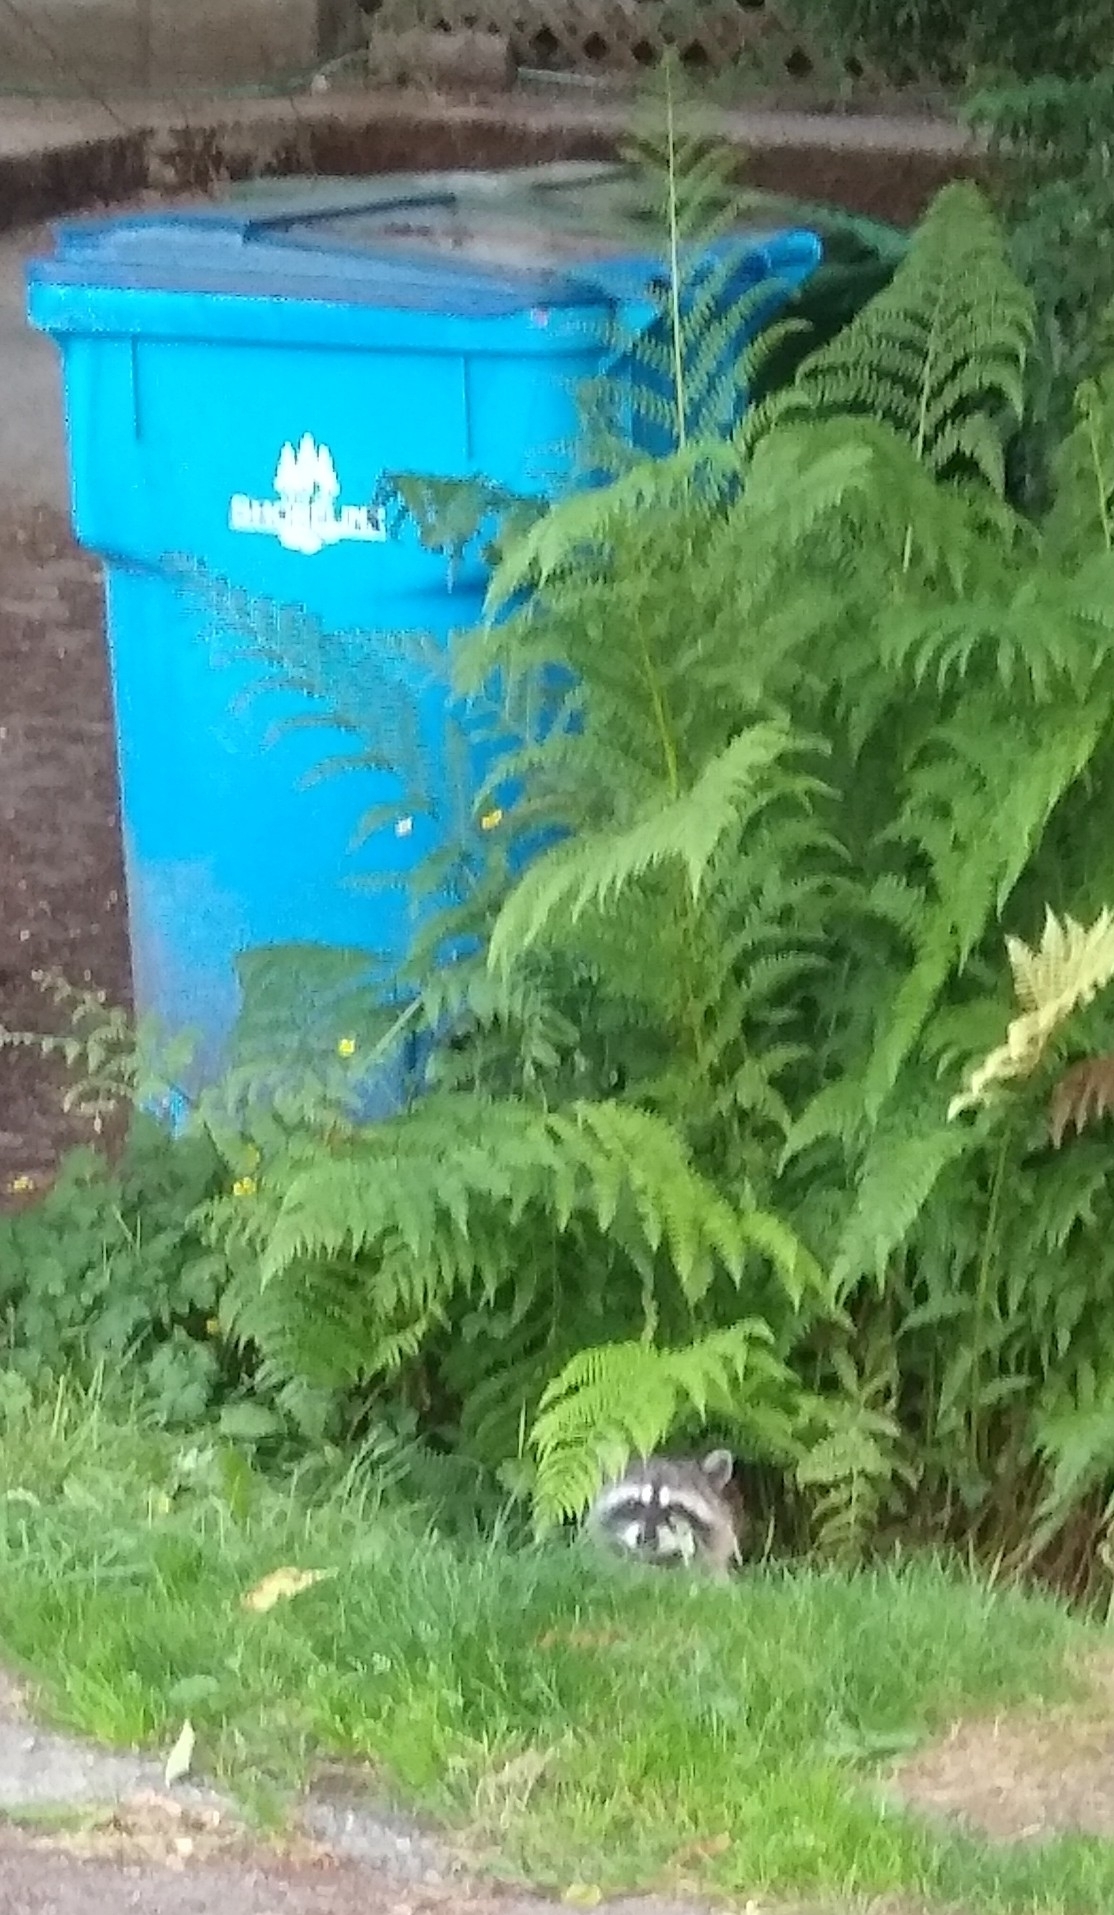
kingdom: Animalia
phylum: Chordata
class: Mammalia
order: Carnivora
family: Procyonidae
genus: Procyon
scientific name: Procyon lotor
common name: Raccoon
